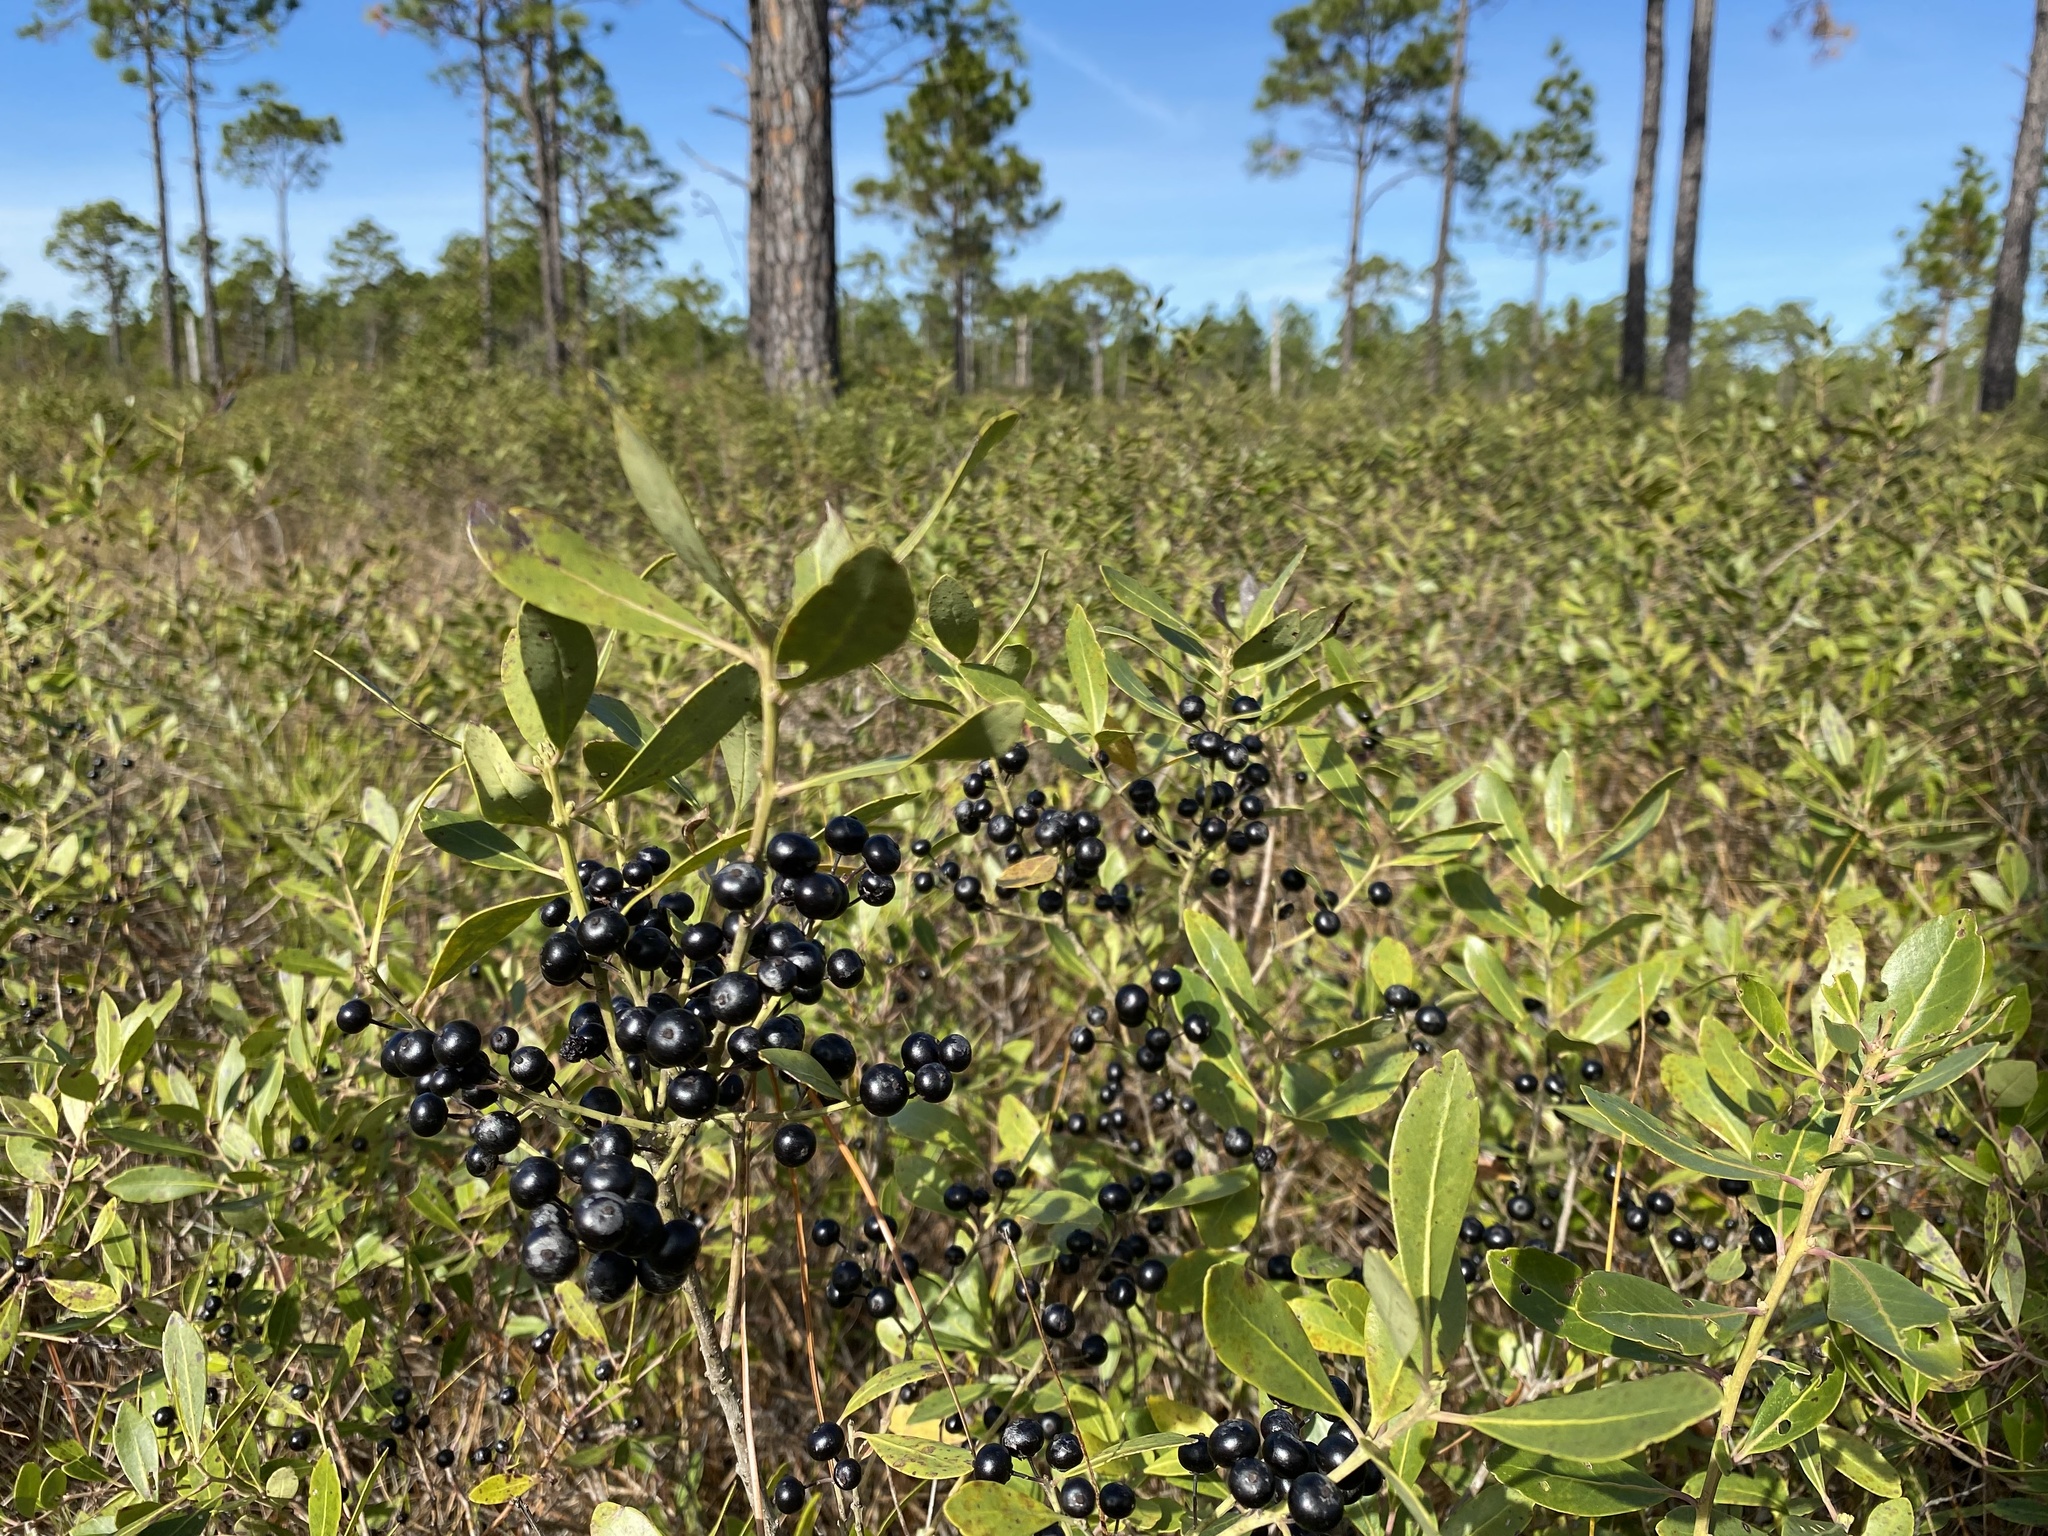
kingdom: Plantae
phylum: Tracheophyta
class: Magnoliopsida
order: Aquifoliales
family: Aquifoliaceae
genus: Ilex
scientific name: Ilex glabra
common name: Bitter gallberry
